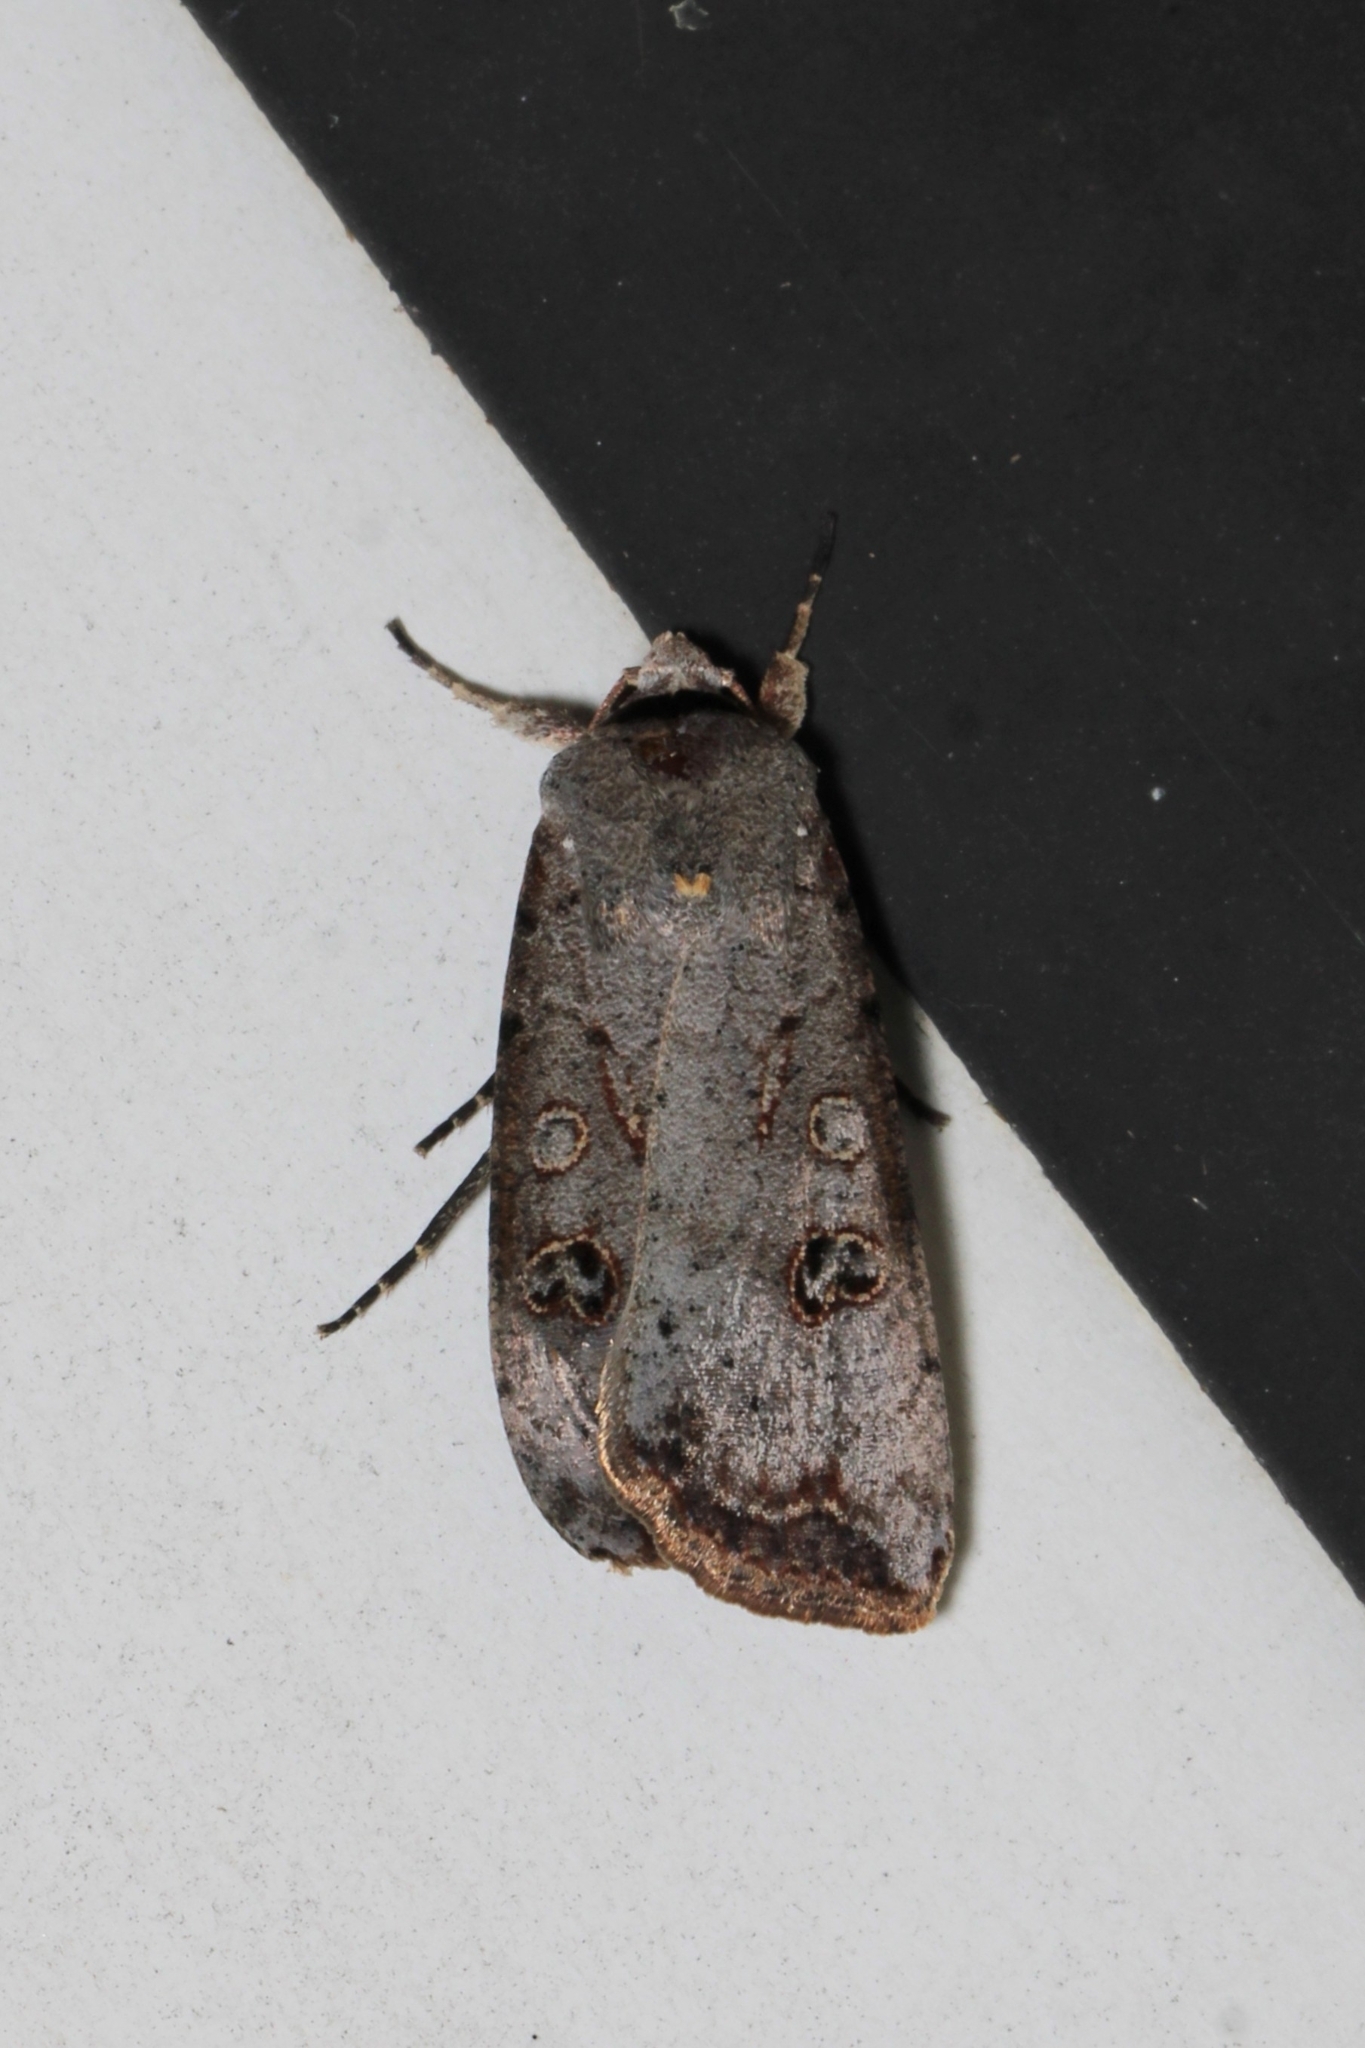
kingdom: Animalia
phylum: Arthropoda
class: Insecta
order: Lepidoptera
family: Noctuidae
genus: Anicla
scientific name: Anicla infecta
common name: Green cutworm
